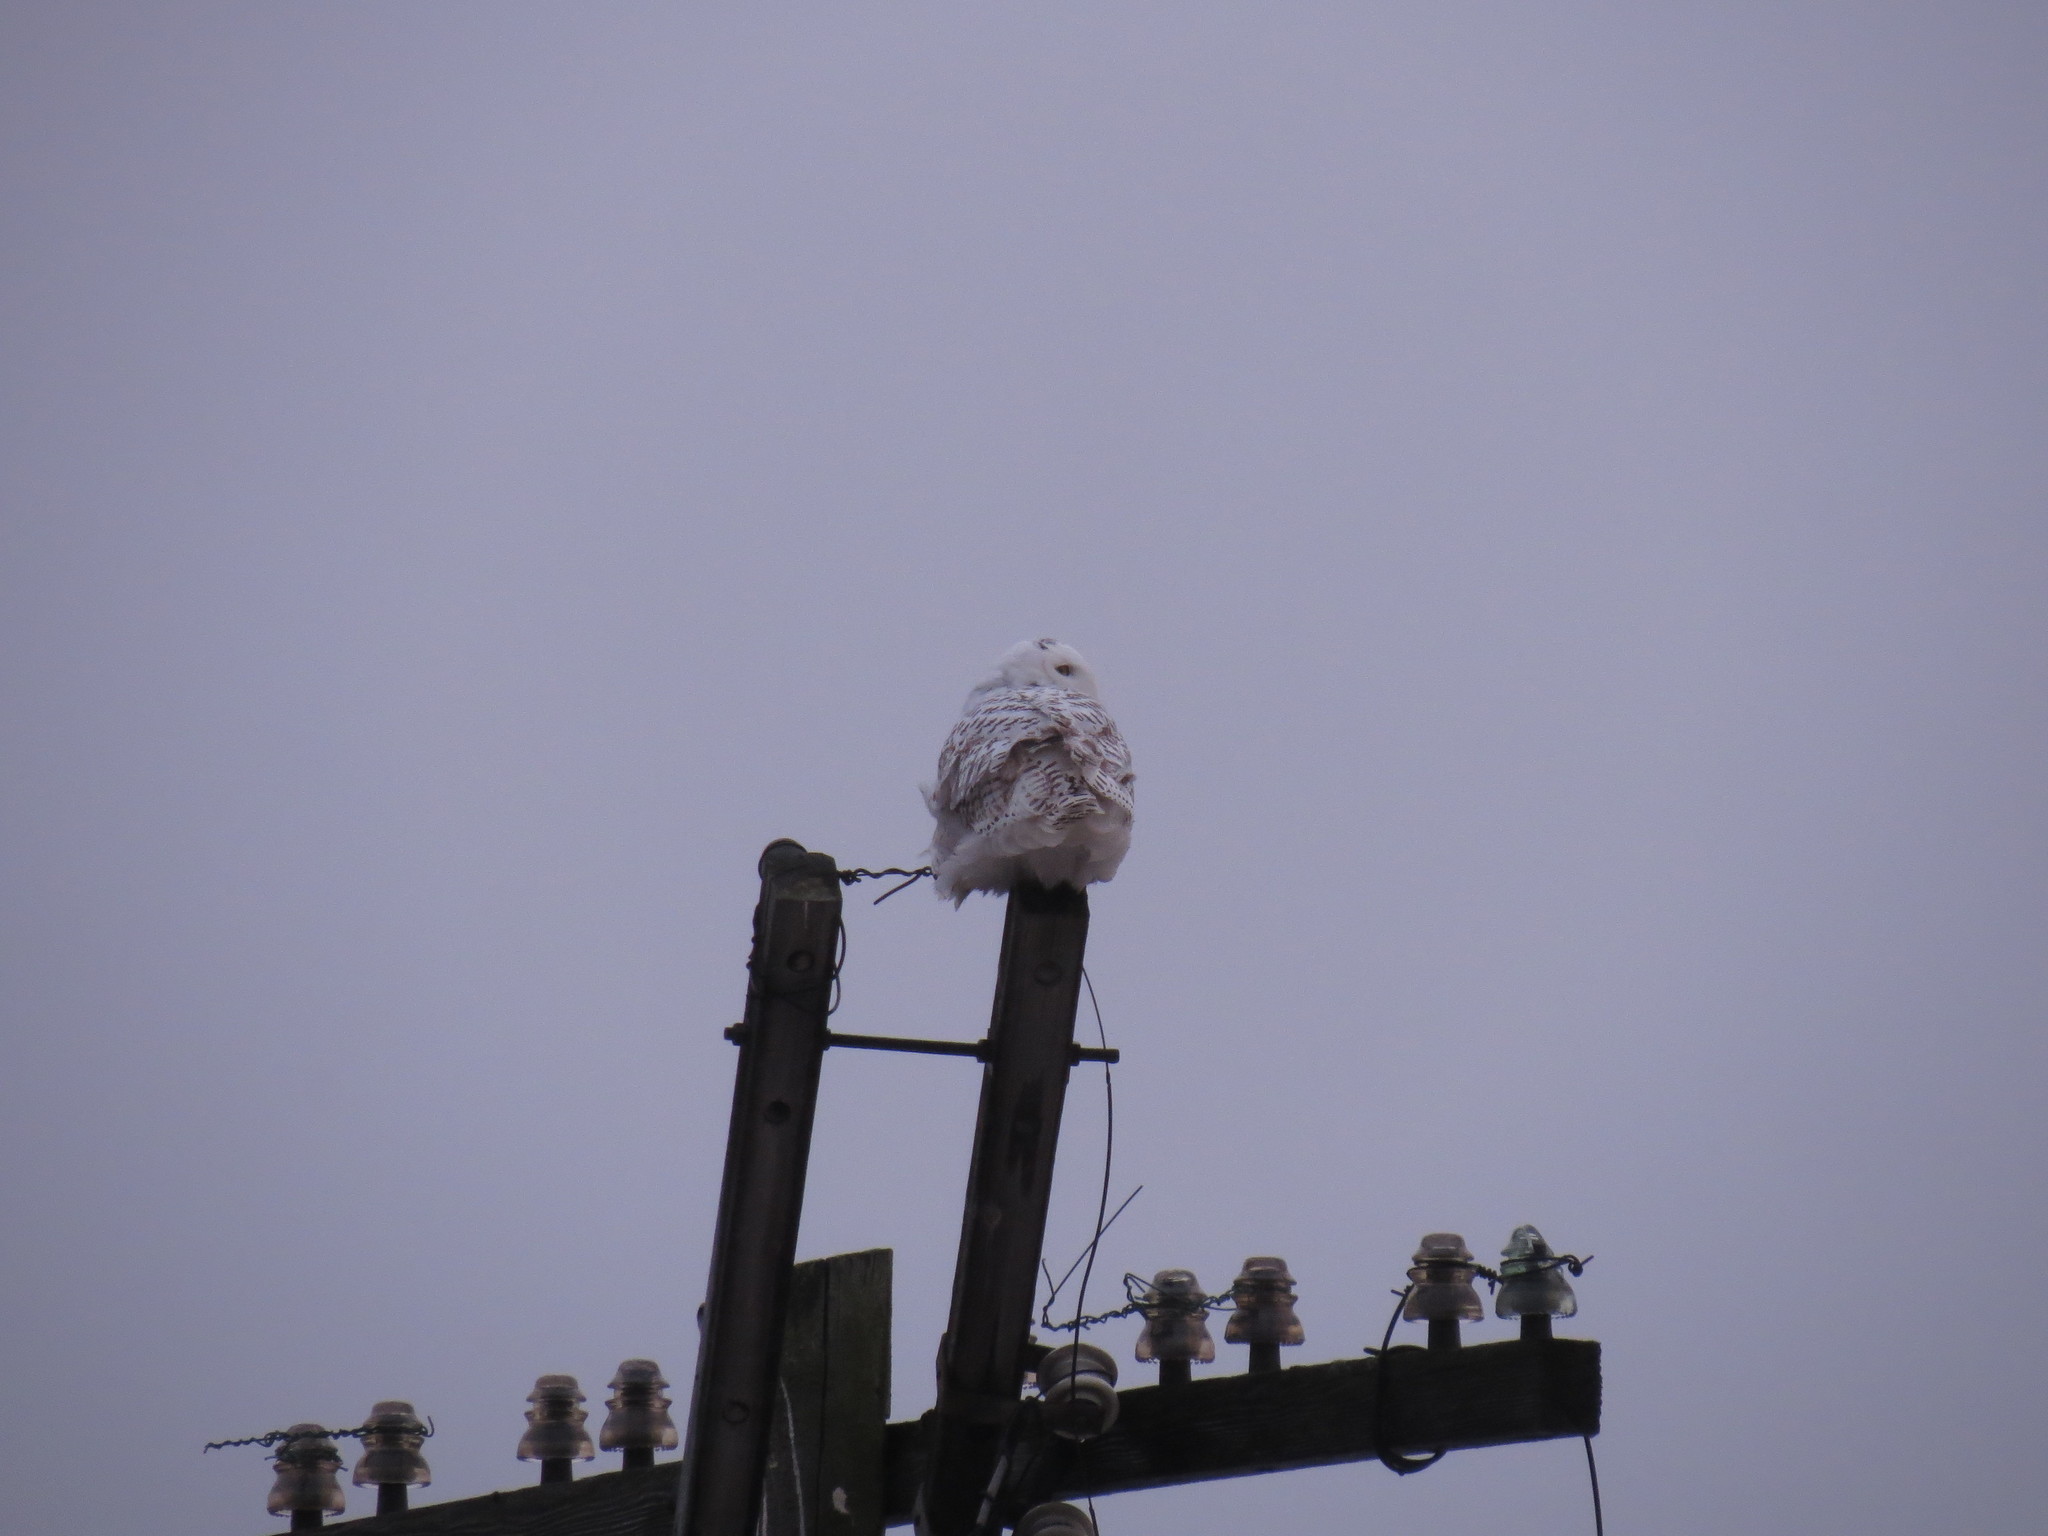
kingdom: Animalia
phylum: Chordata
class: Aves
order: Strigiformes
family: Strigidae
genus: Bubo
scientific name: Bubo scandiacus
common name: Snowy owl
